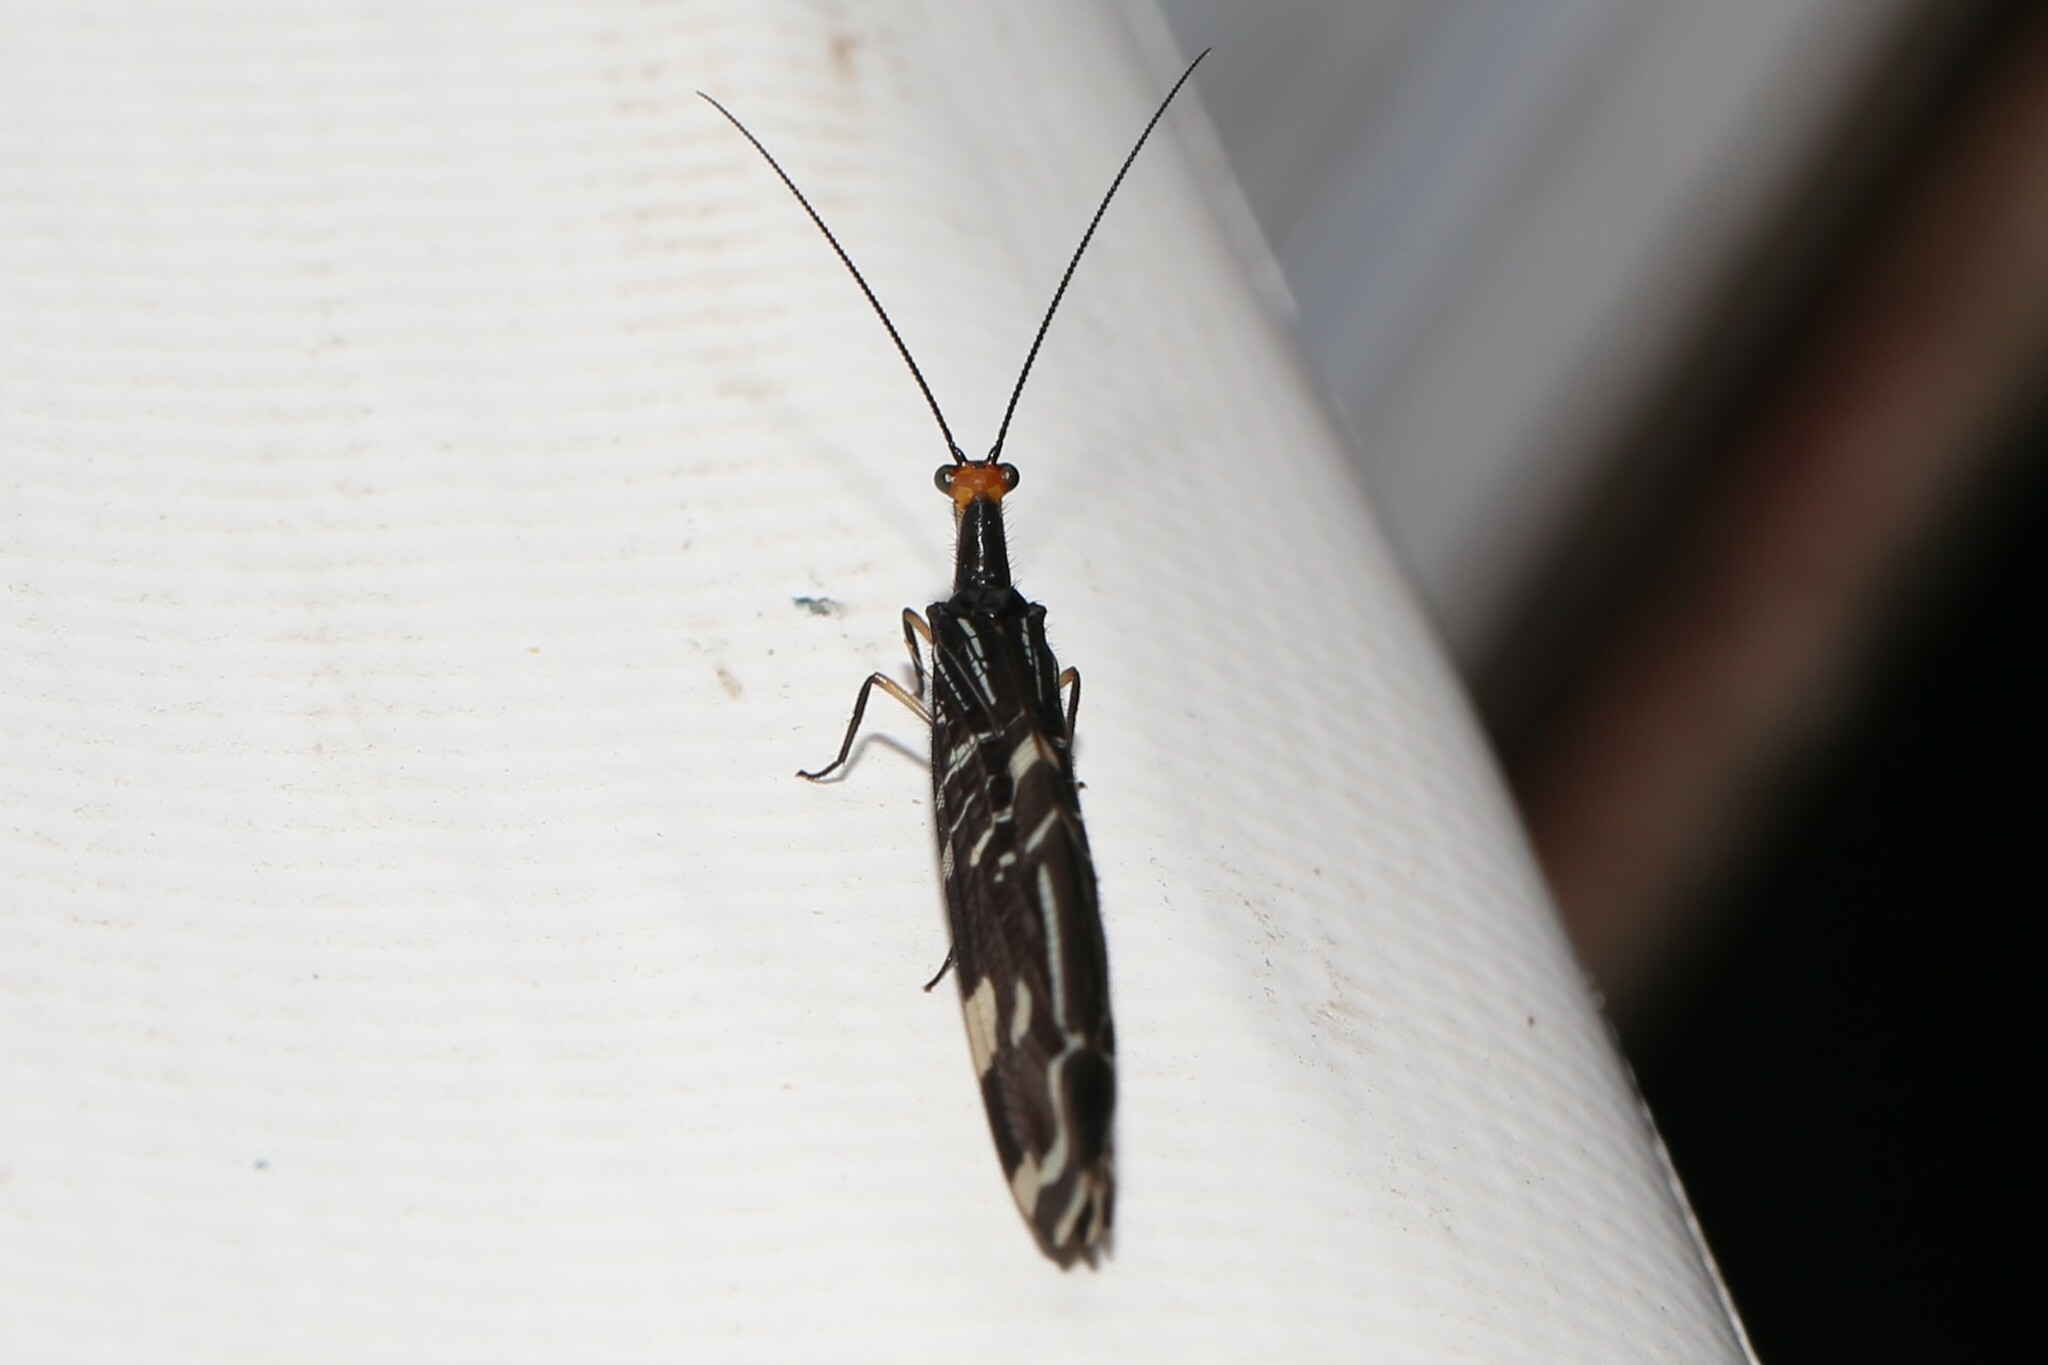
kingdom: Animalia
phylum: Arthropoda
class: Insecta
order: Neuroptera
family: Osmylidae
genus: Porismus
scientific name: Porismus strigatus
